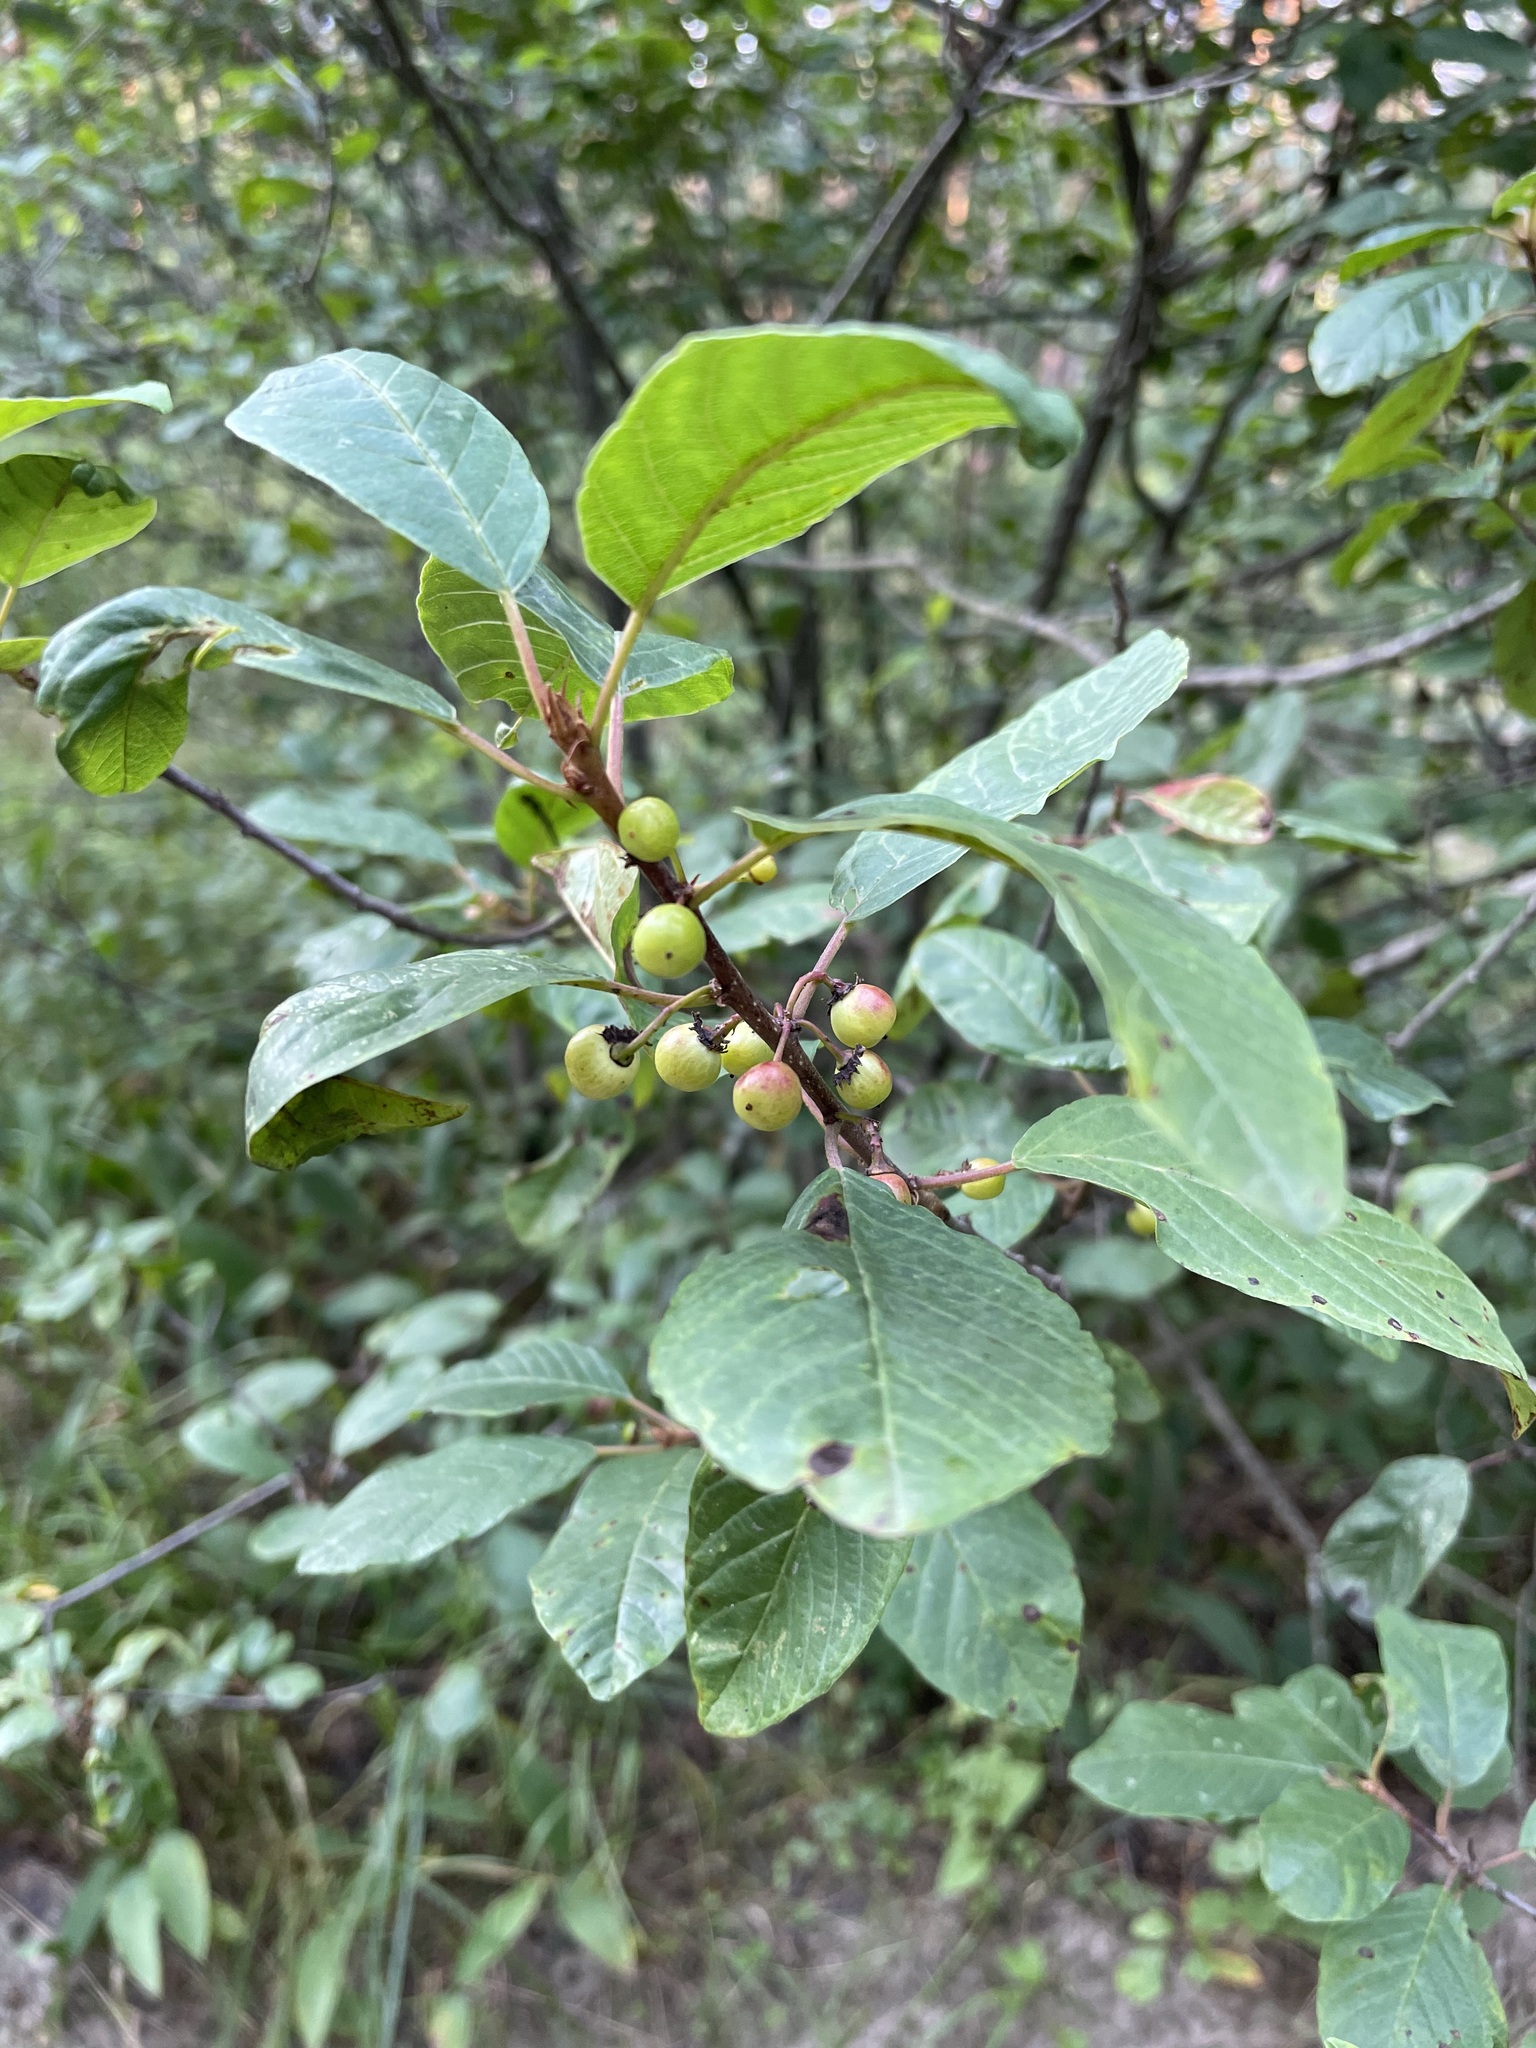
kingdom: Plantae
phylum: Tracheophyta
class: Magnoliopsida
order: Rosales
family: Rhamnaceae
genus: Frangula
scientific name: Frangula alnus
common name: Alder buckthorn
